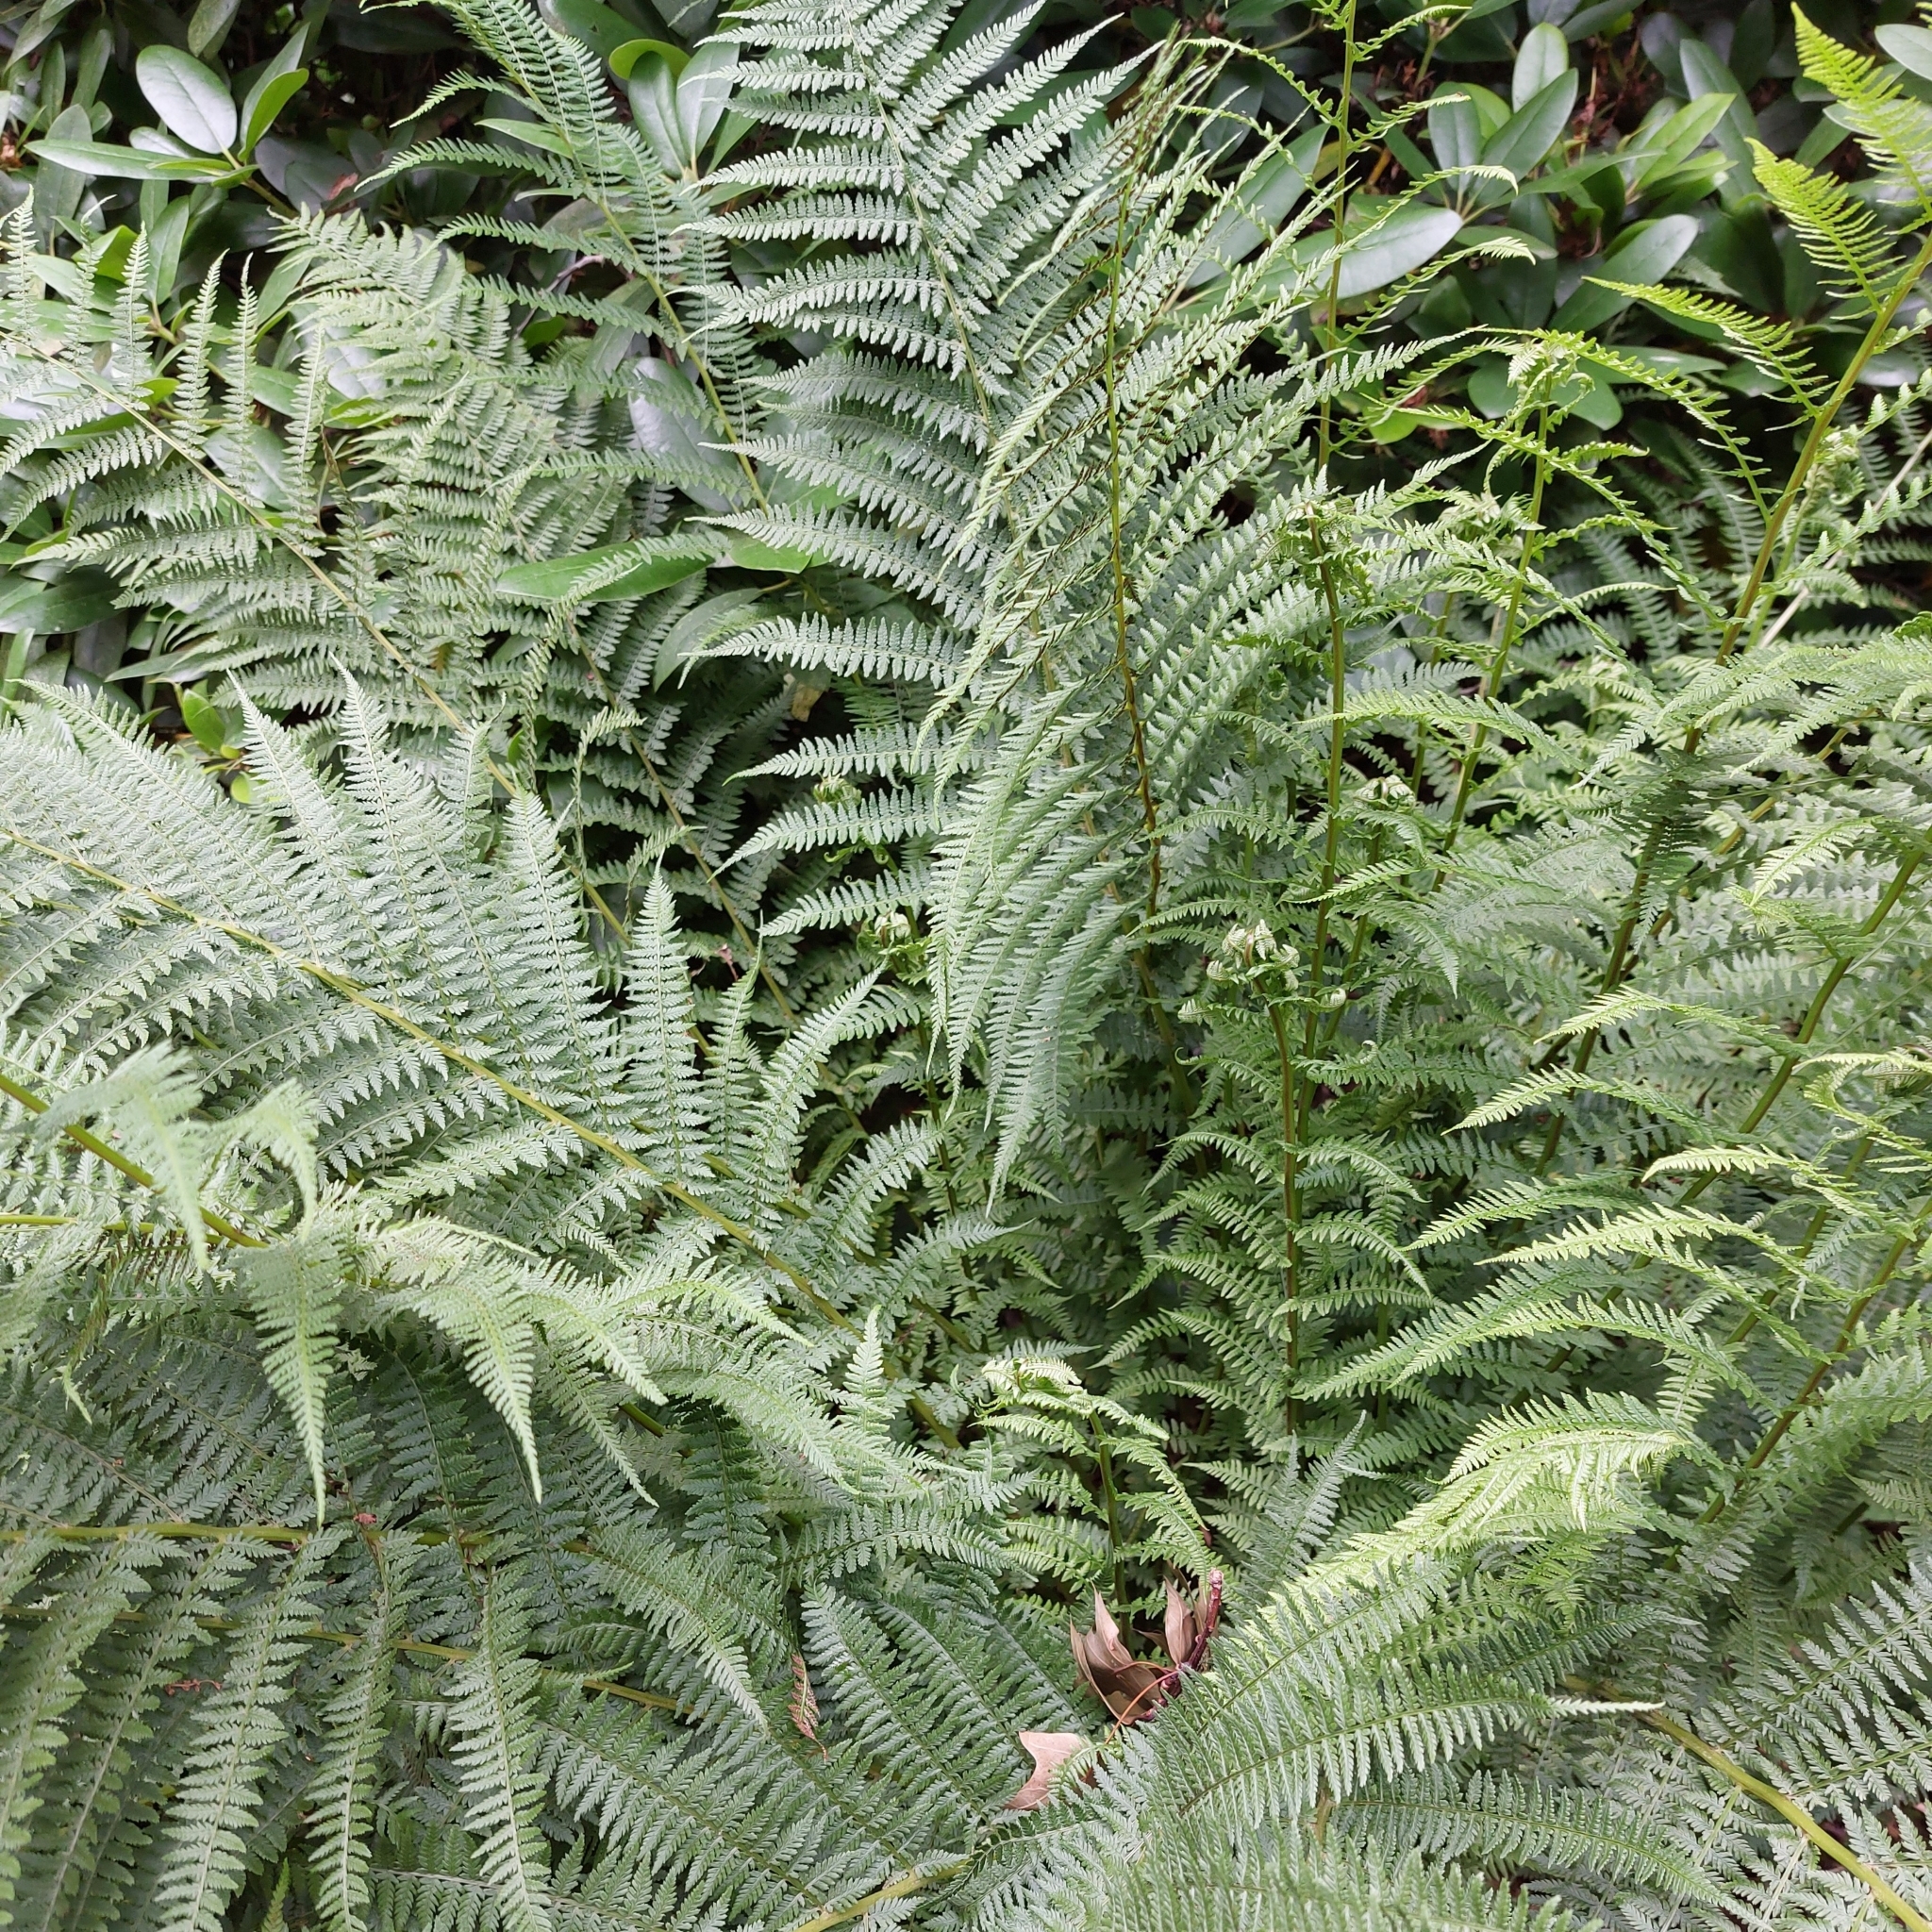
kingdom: Plantae
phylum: Tracheophyta
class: Polypodiopsida
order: Polypodiales
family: Athyriaceae
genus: Athyrium
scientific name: Athyrium filix-femina
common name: Lady fern
